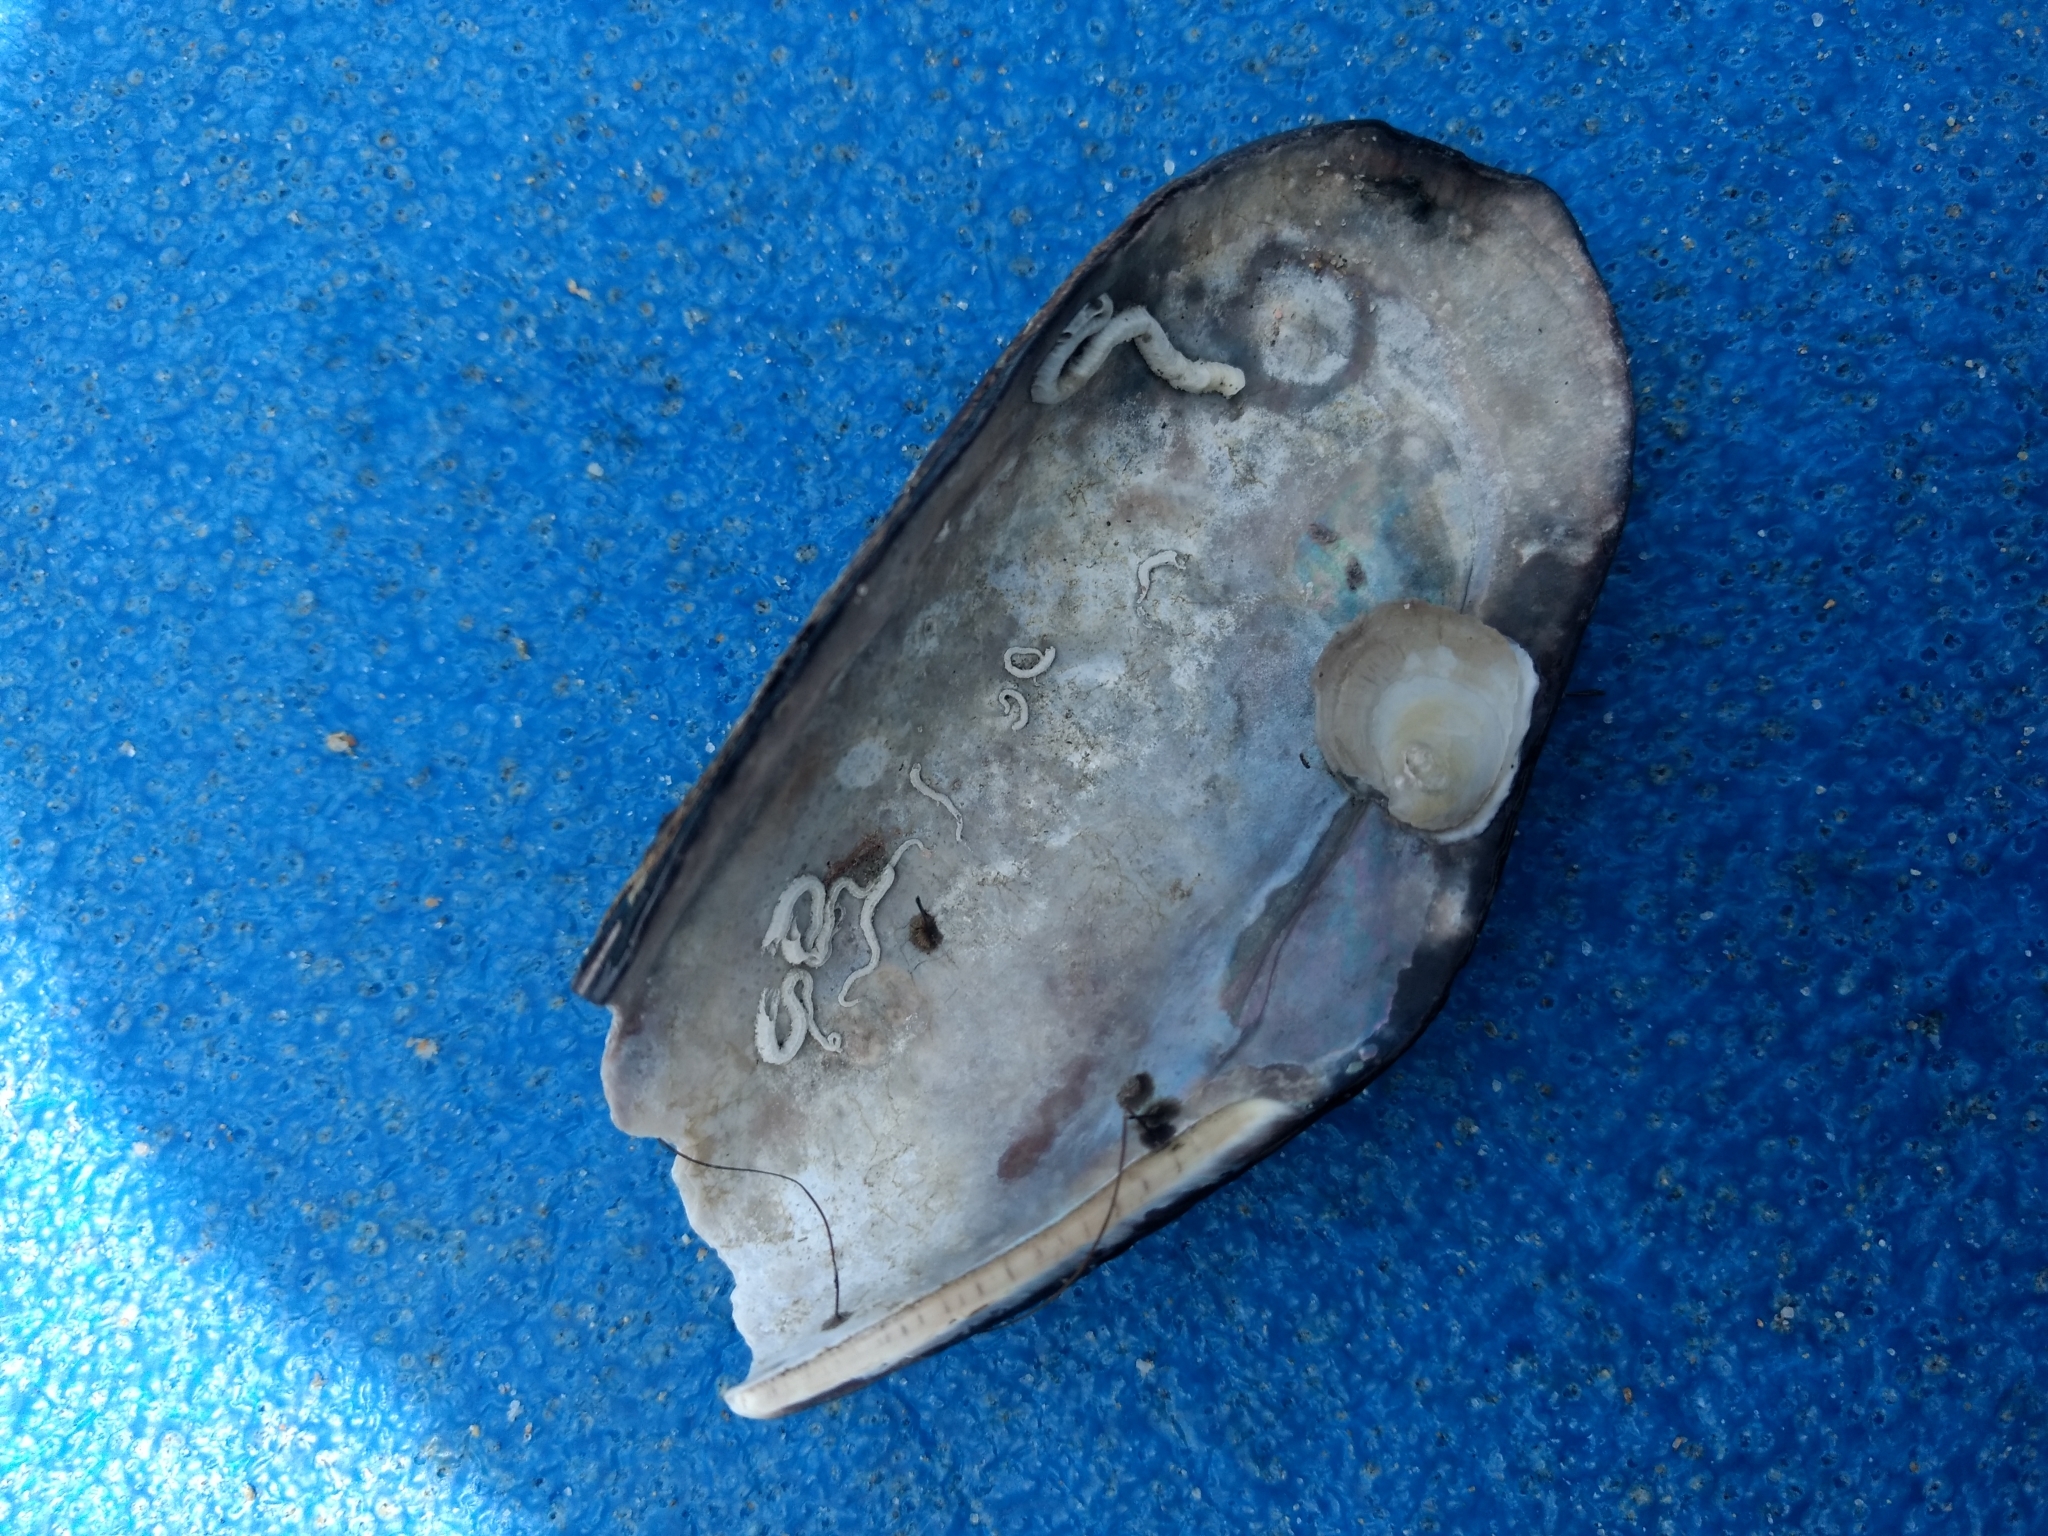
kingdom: Animalia
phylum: Mollusca
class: Bivalvia
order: Mytilida
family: Mytilidae
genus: Mytilus
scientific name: Mytilus californianus
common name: California mussel
